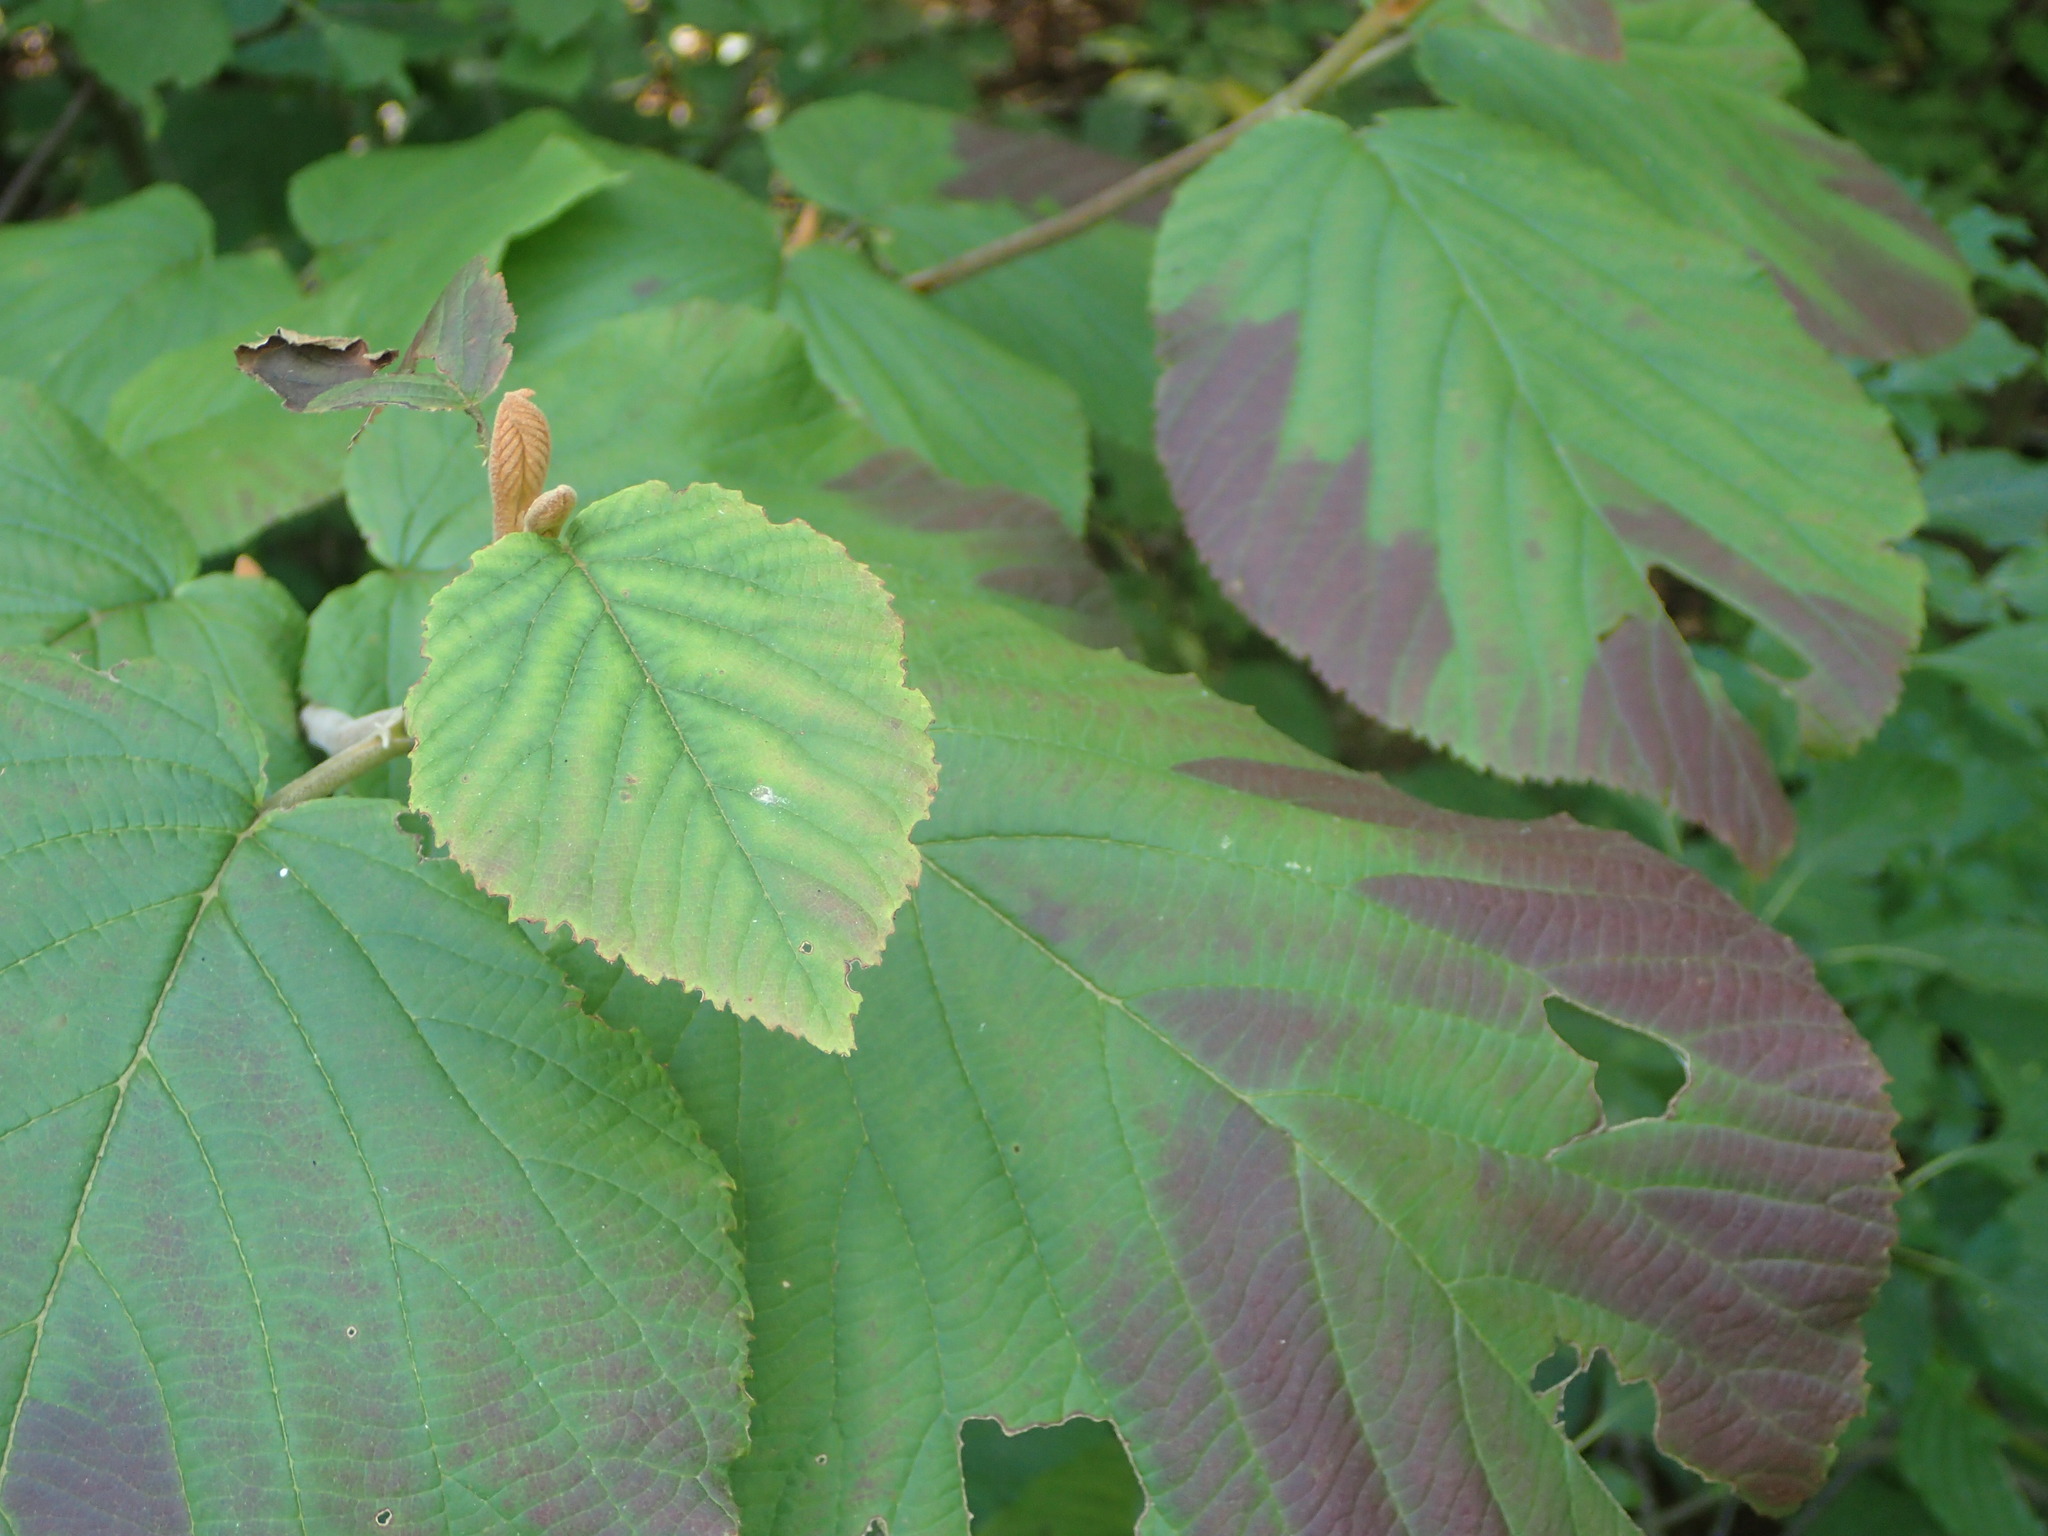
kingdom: Plantae
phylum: Tracheophyta
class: Magnoliopsida
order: Dipsacales
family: Viburnaceae
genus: Viburnum
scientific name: Viburnum lantanoides
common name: Hobblebush
